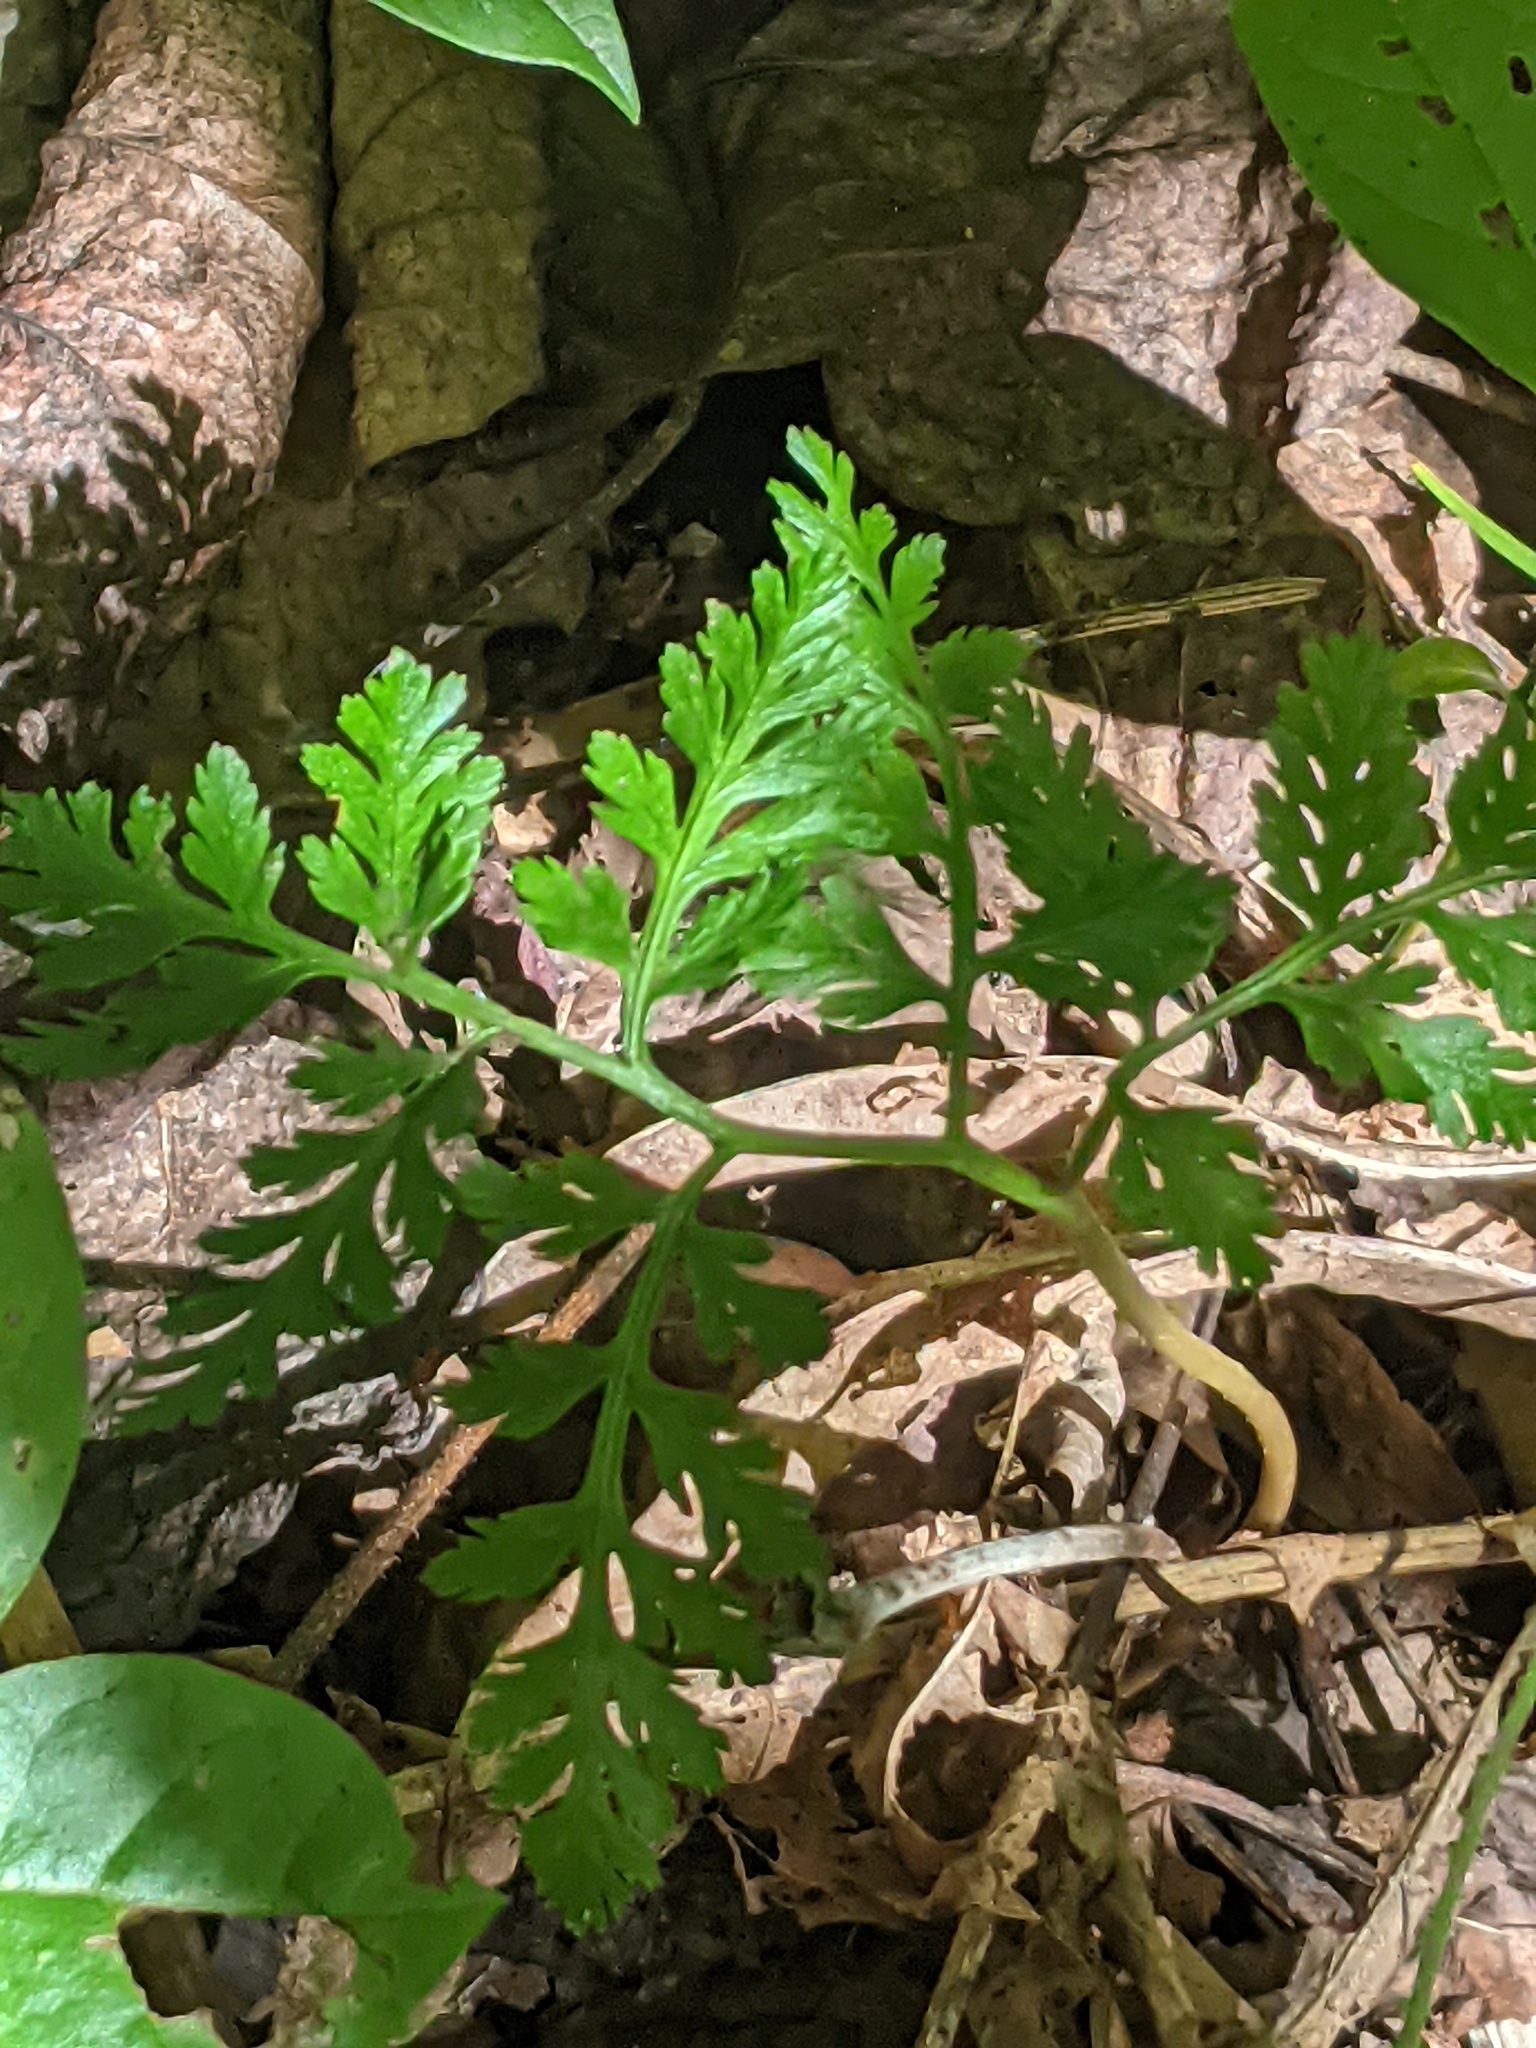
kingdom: Plantae
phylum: Tracheophyta
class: Polypodiopsida
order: Ophioglossales
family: Ophioglossaceae
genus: Botrypus
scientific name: Botrypus virginianus
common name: Common grapefern
